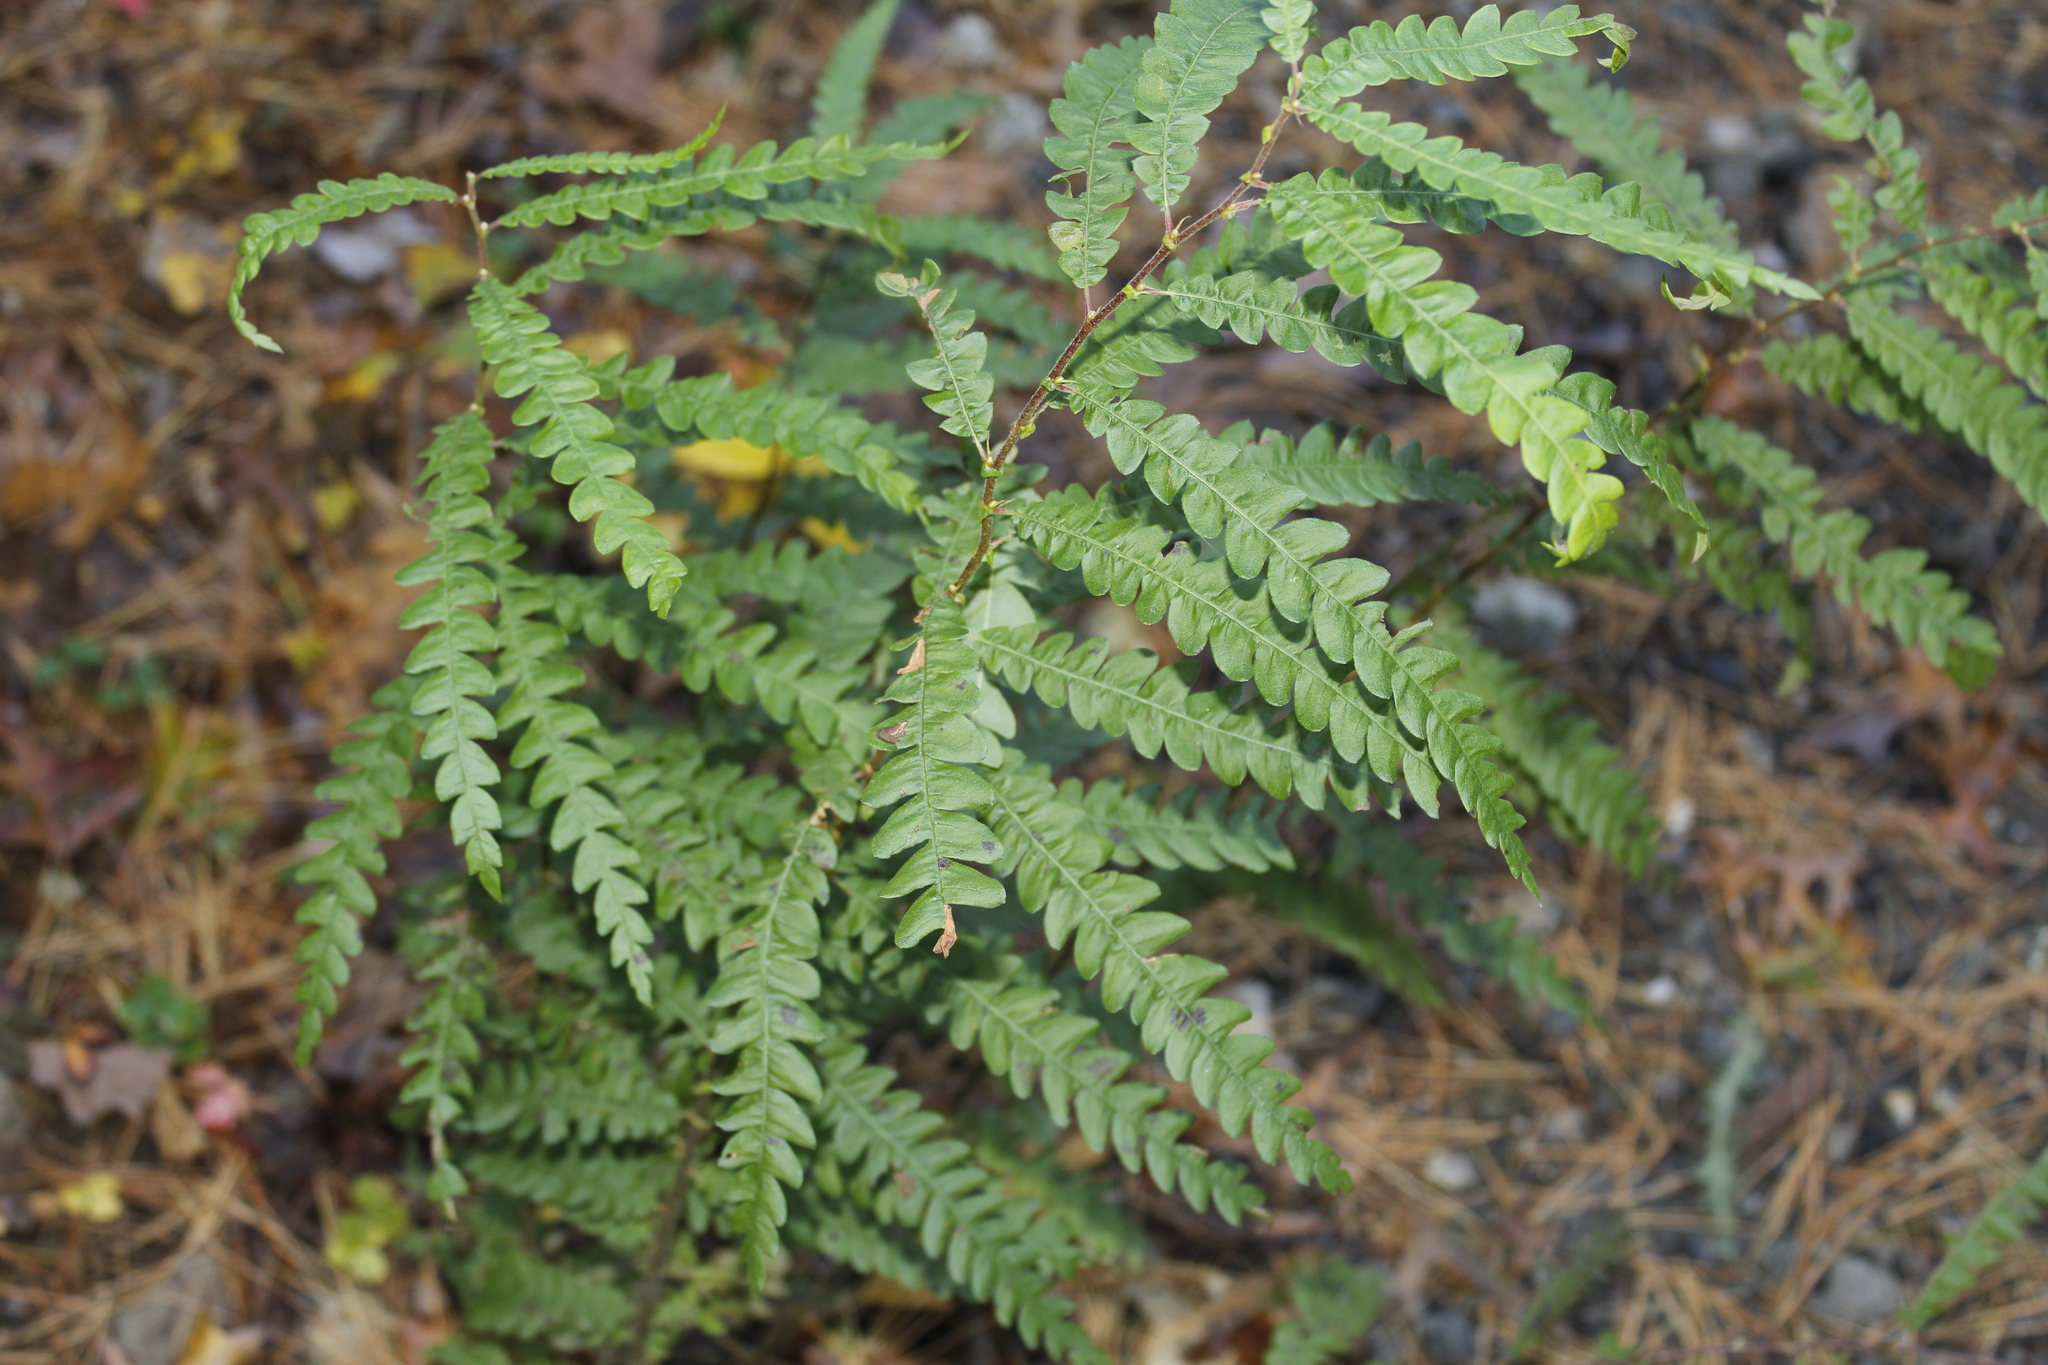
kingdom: Plantae
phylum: Tracheophyta
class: Magnoliopsida
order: Fagales
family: Myricaceae
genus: Comptonia
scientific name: Comptonia peregrina
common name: Sweet-fern
